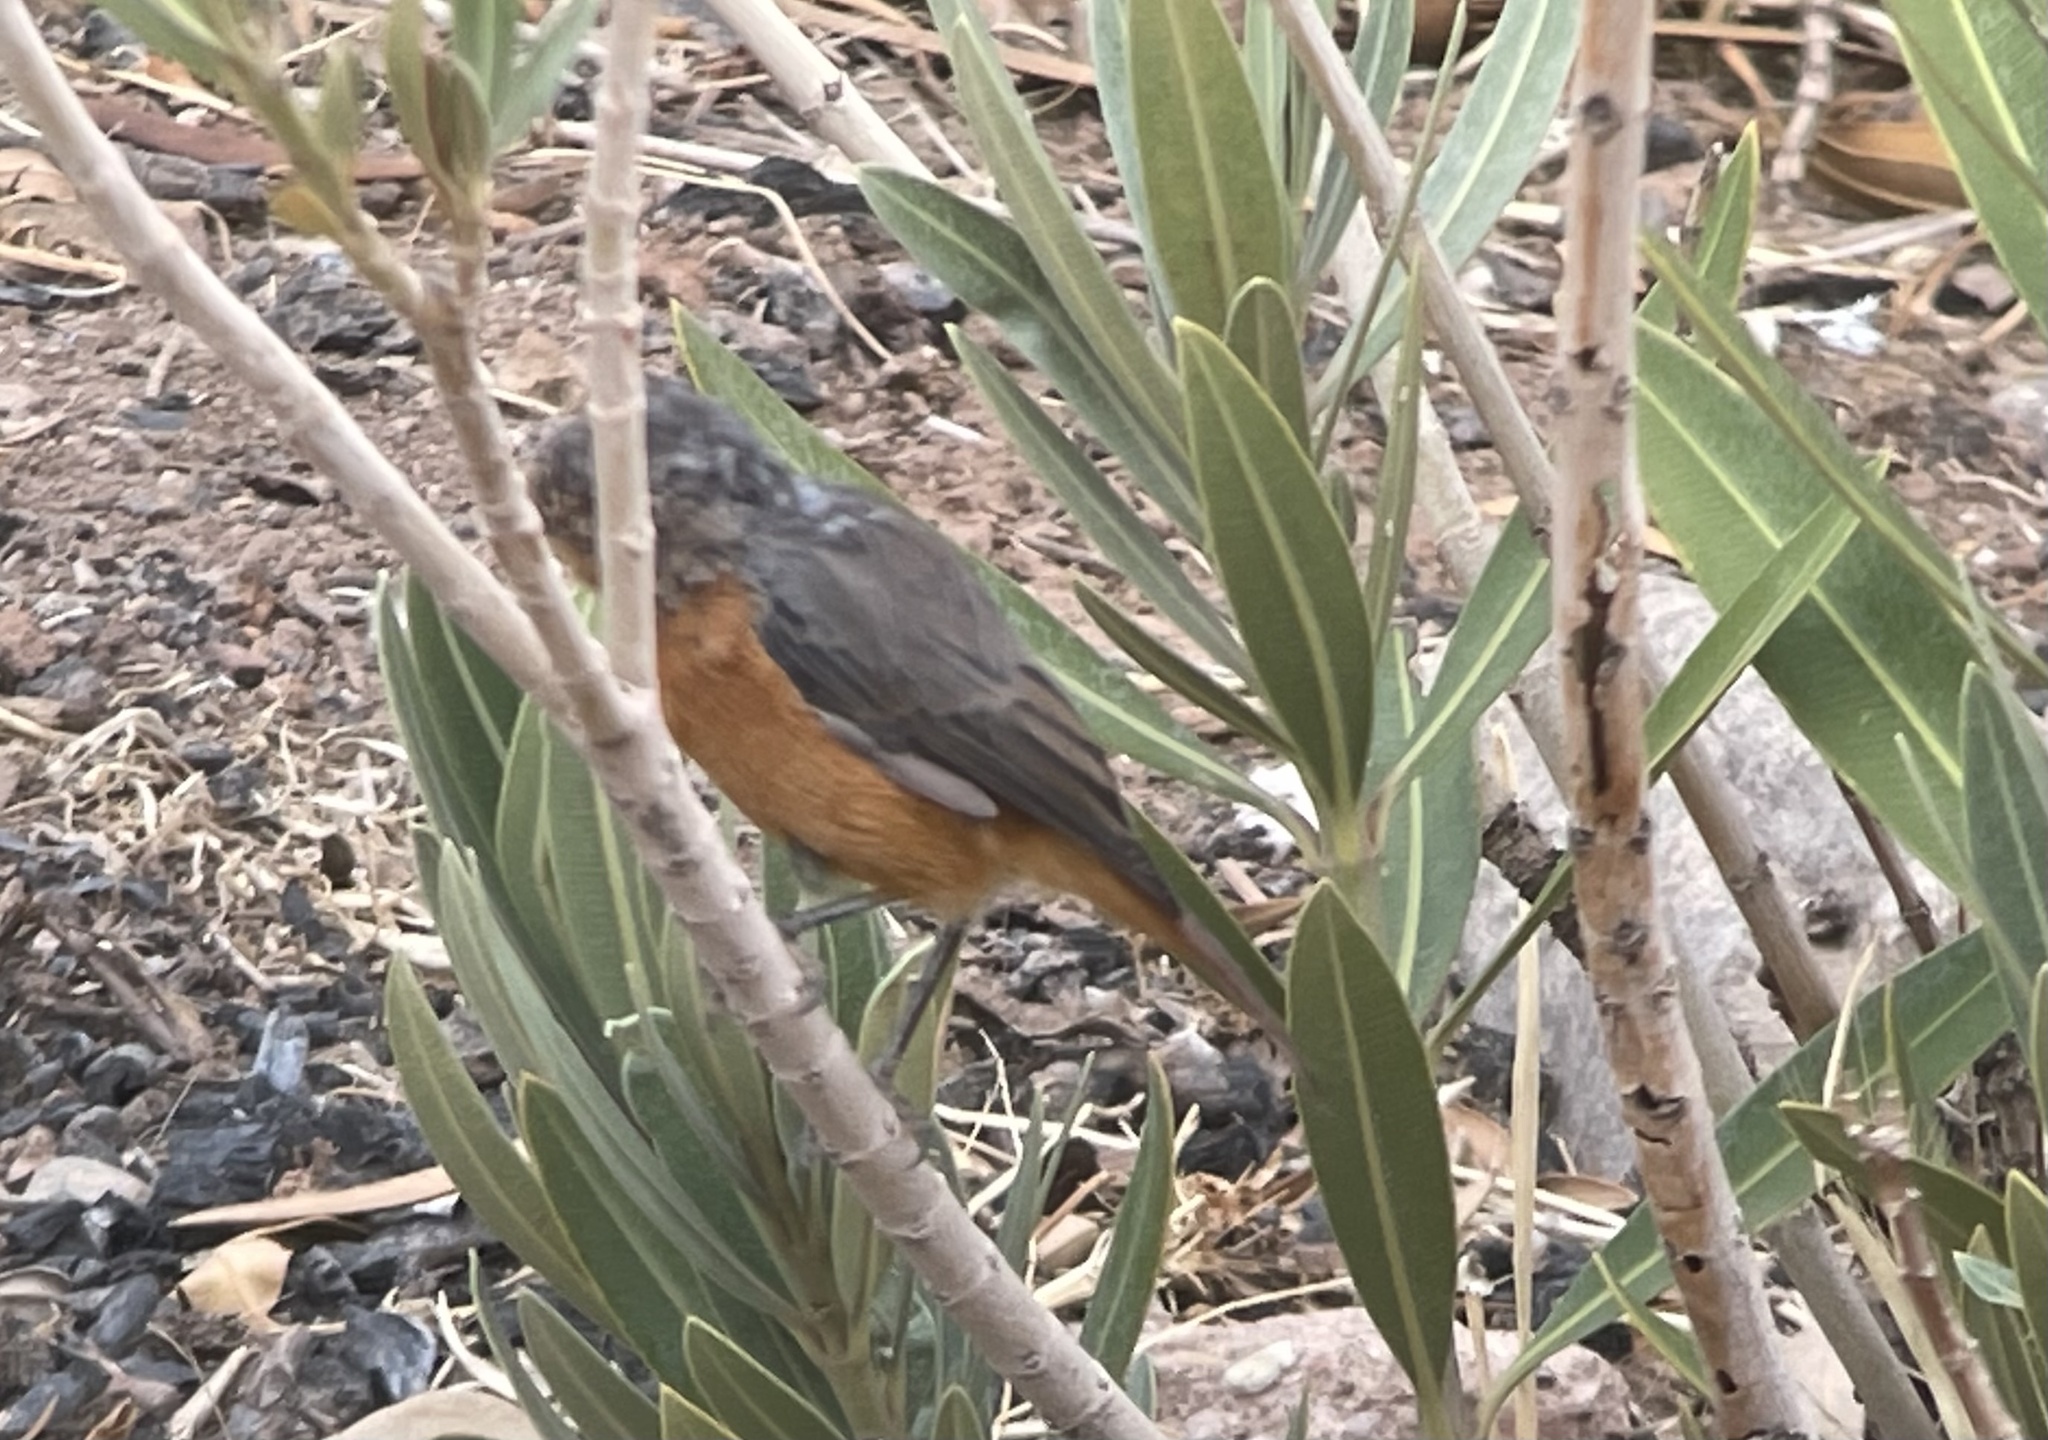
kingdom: Animalia
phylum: Chordata
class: Aves
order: Passeriformes
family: Muscicapidae
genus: Phoenicurus
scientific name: Phoenicurus phoenicurus
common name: Common redstart
